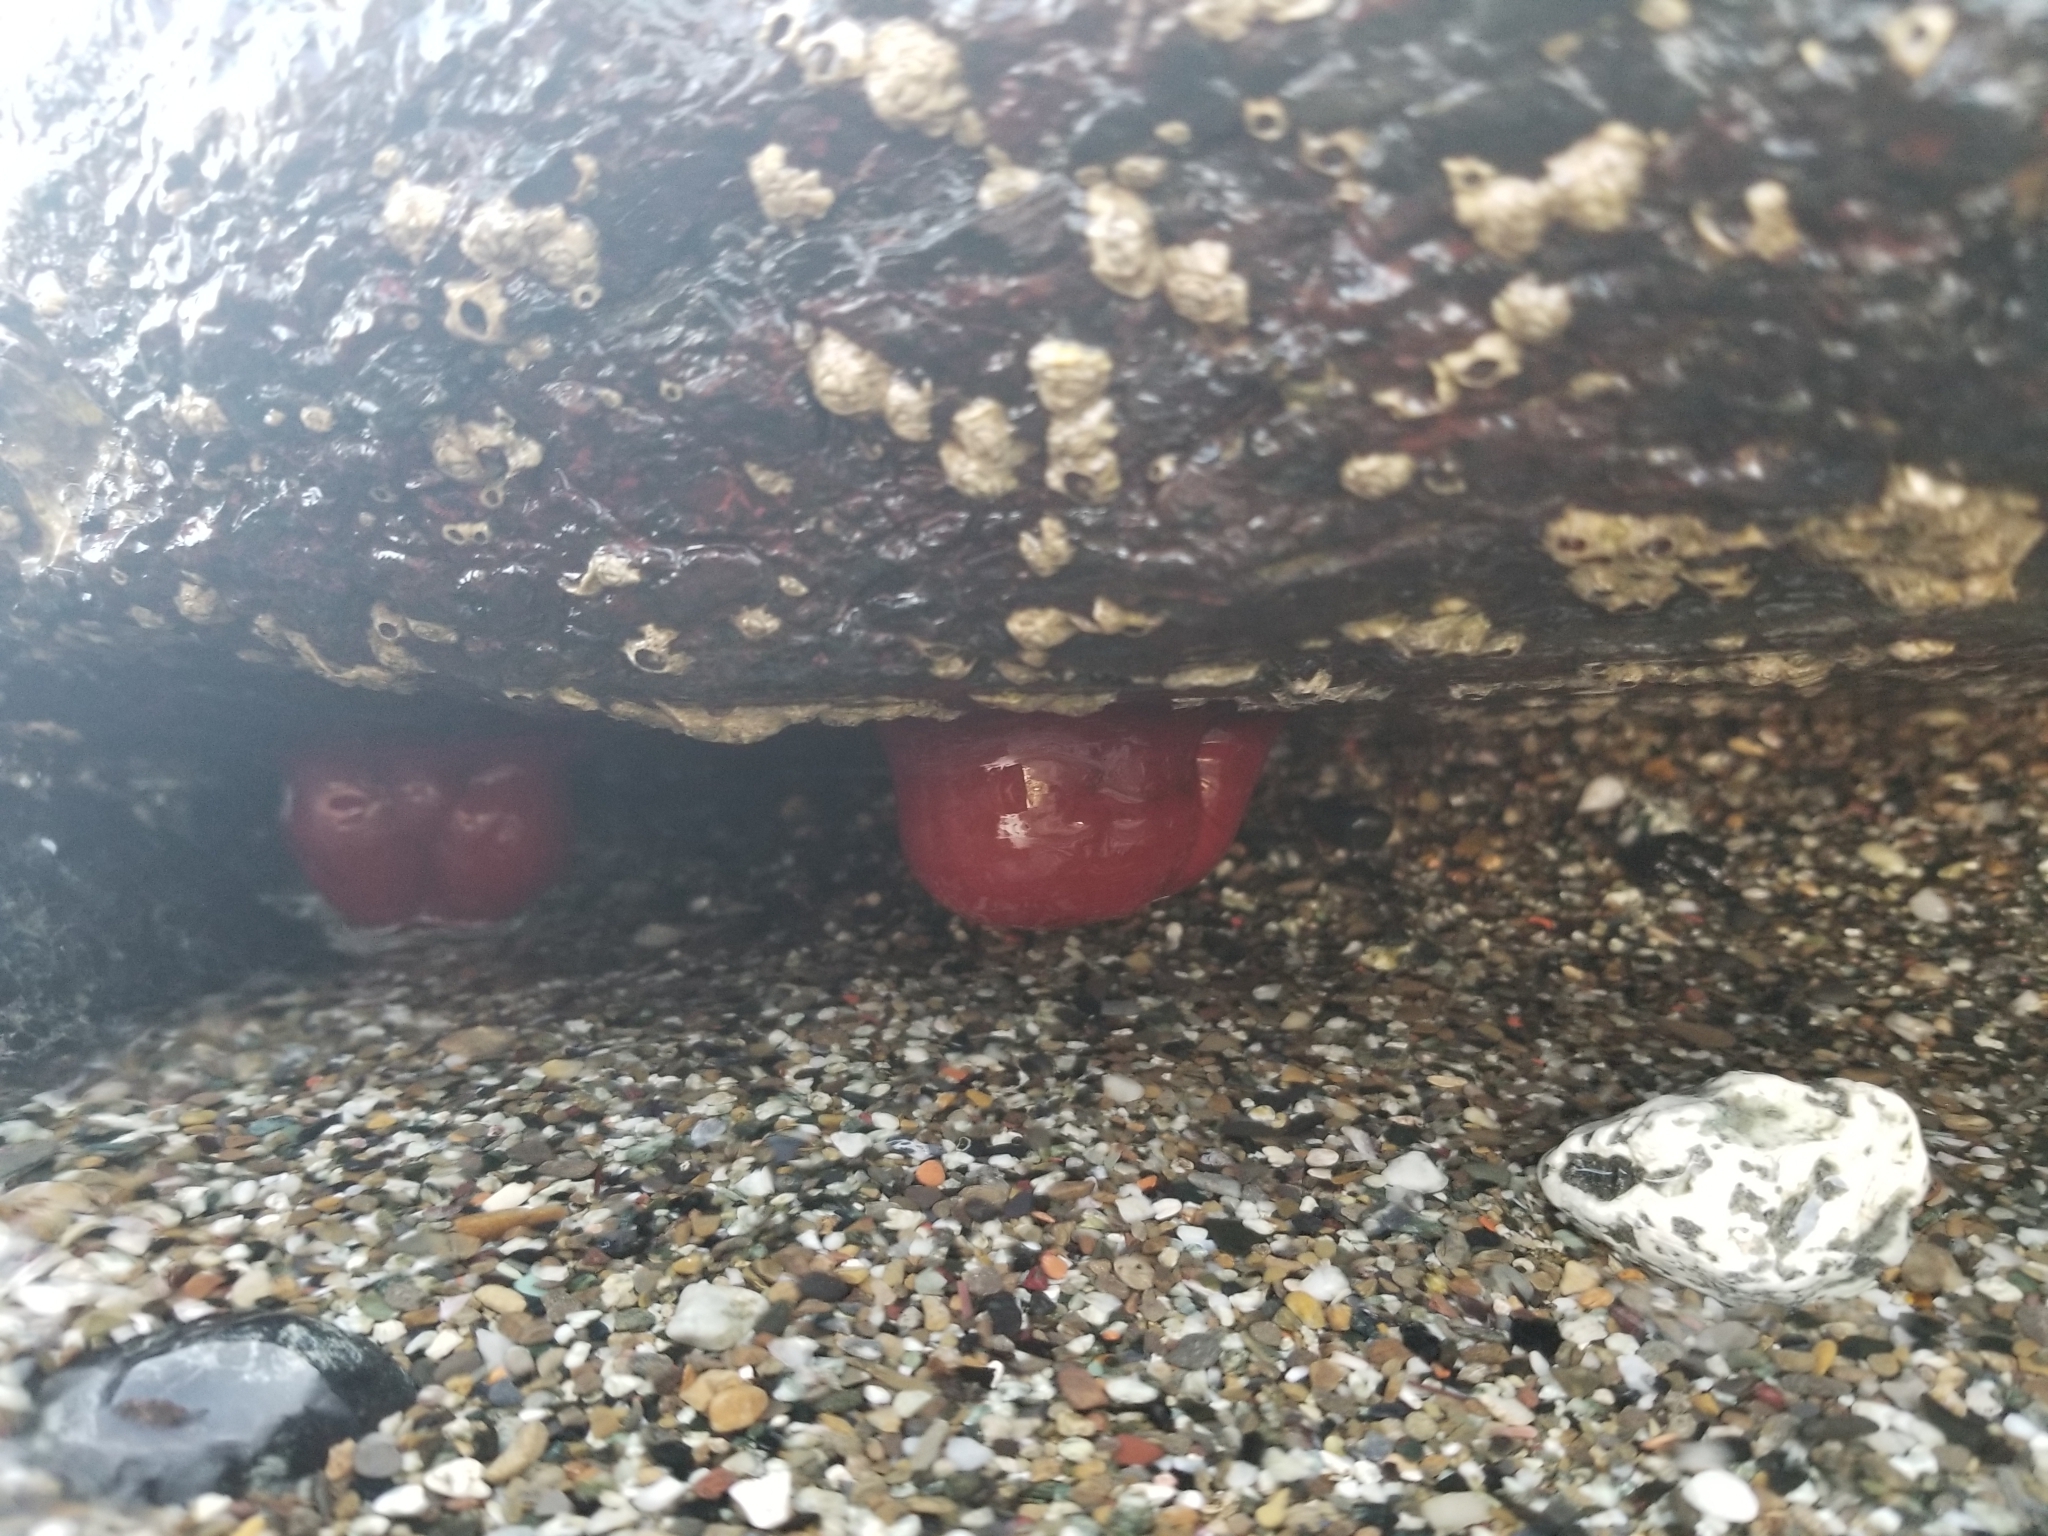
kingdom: Animalia
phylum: Cnidaria
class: Anthozoa
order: Actiniaria
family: Actiniidae
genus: Actinia
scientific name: Actinia mediterranea
